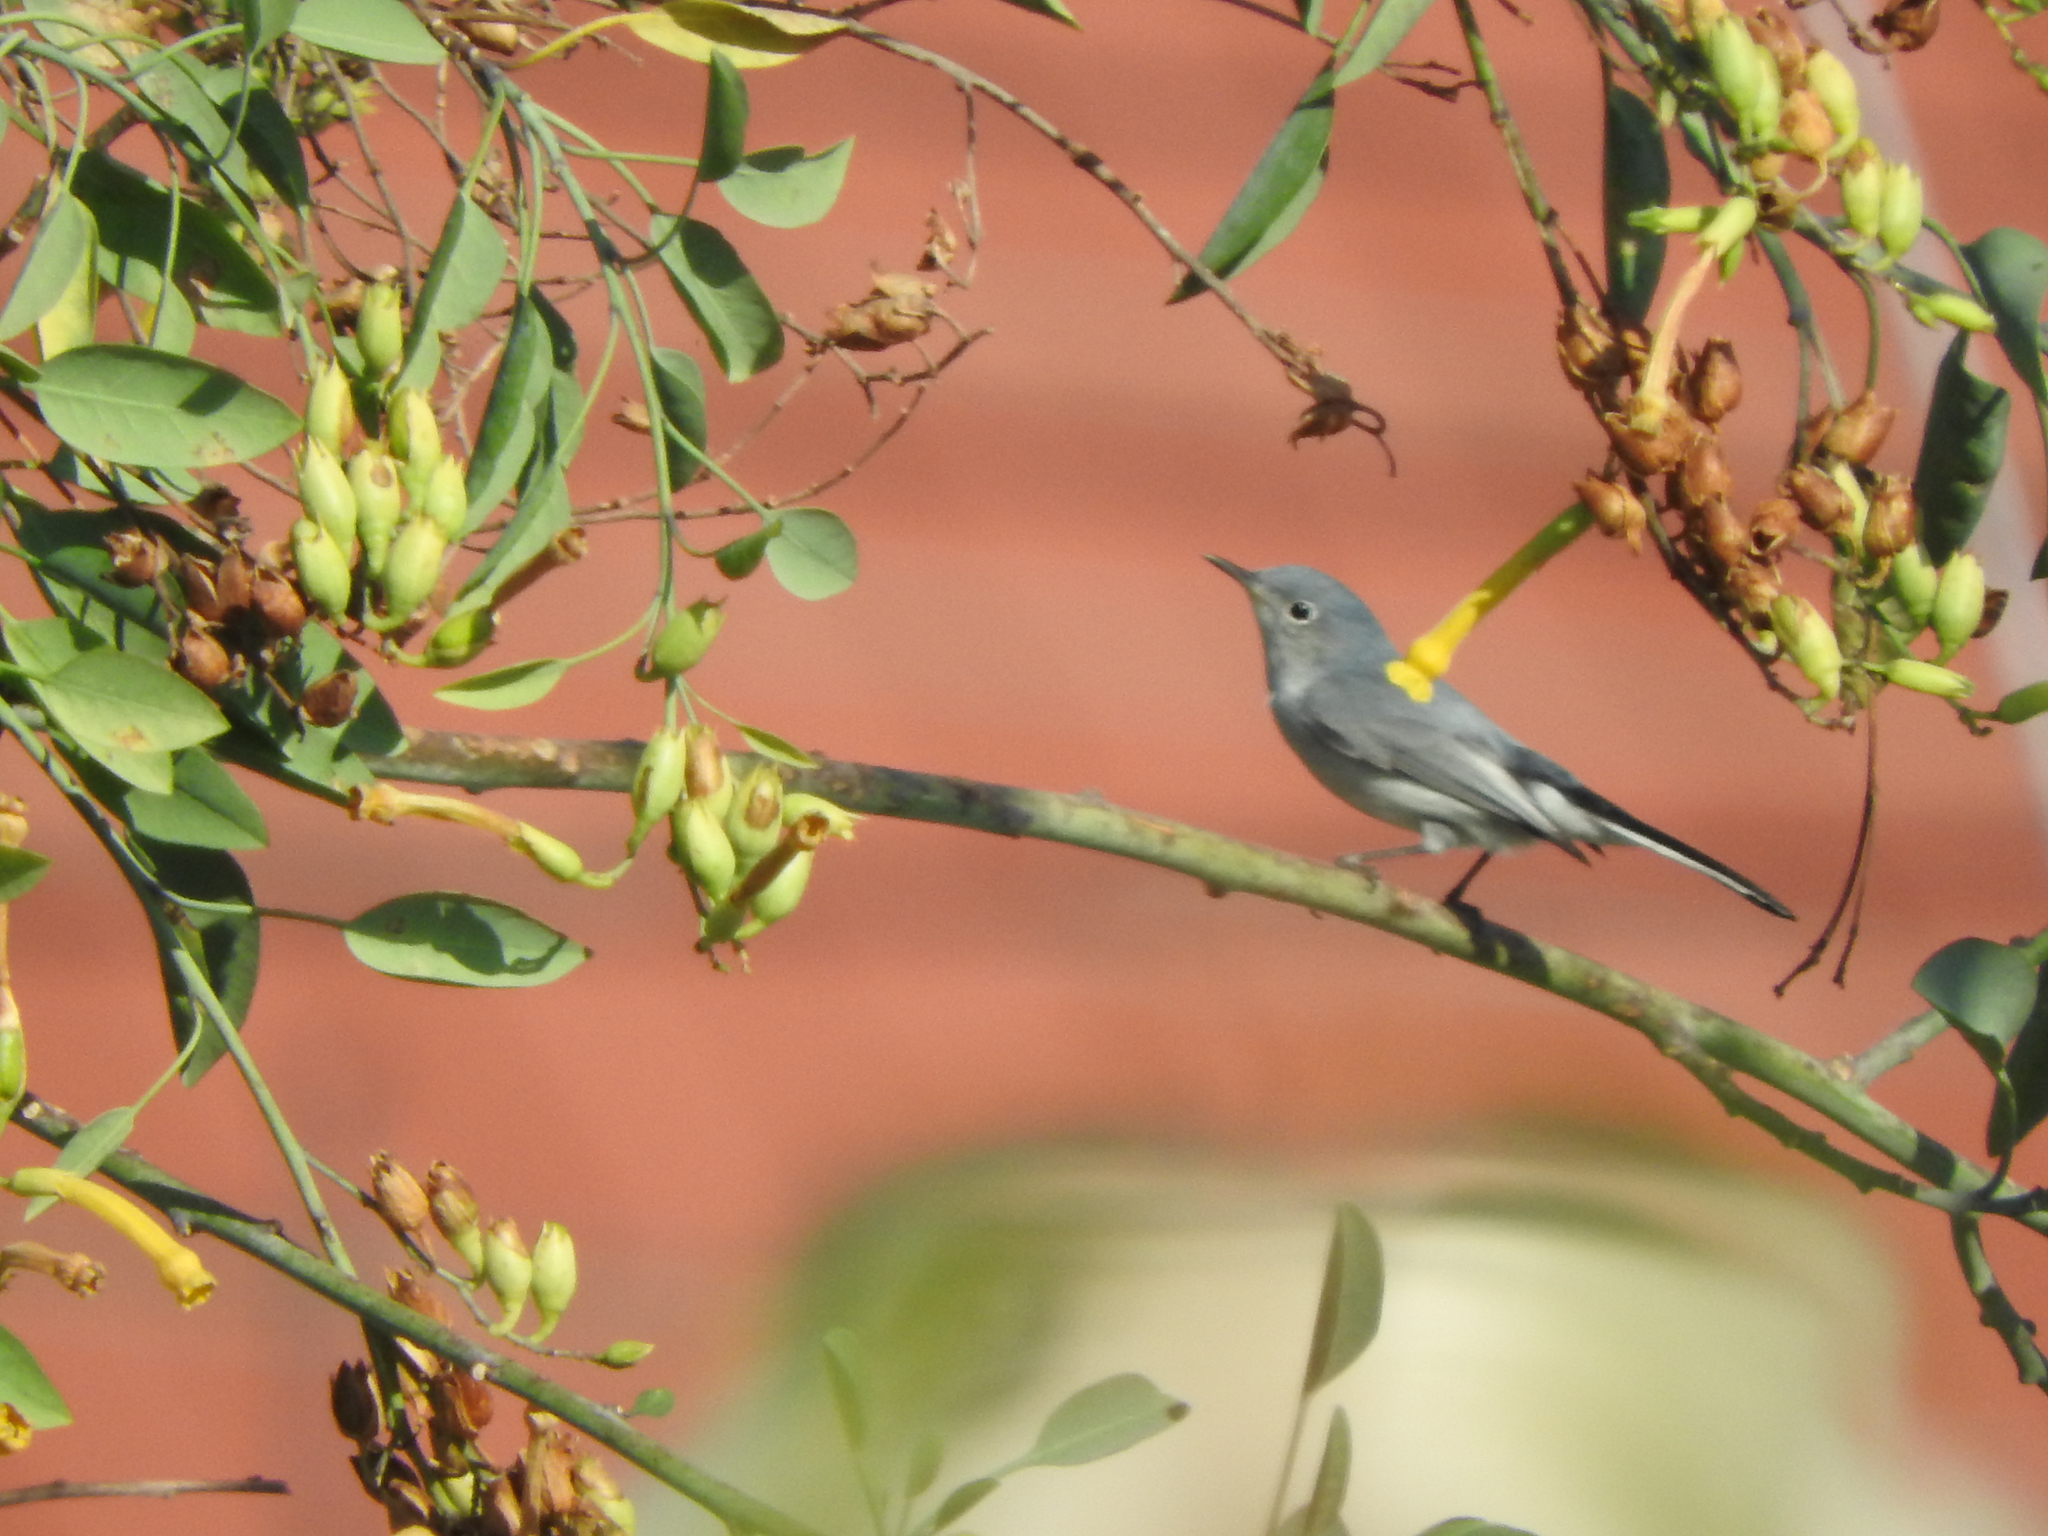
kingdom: Animalia
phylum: Chordata
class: Aves
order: Passeriformes
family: Polioptilidae
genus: Polioptila
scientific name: Polioptila caerulea
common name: Blue-gray gnatcatcher
